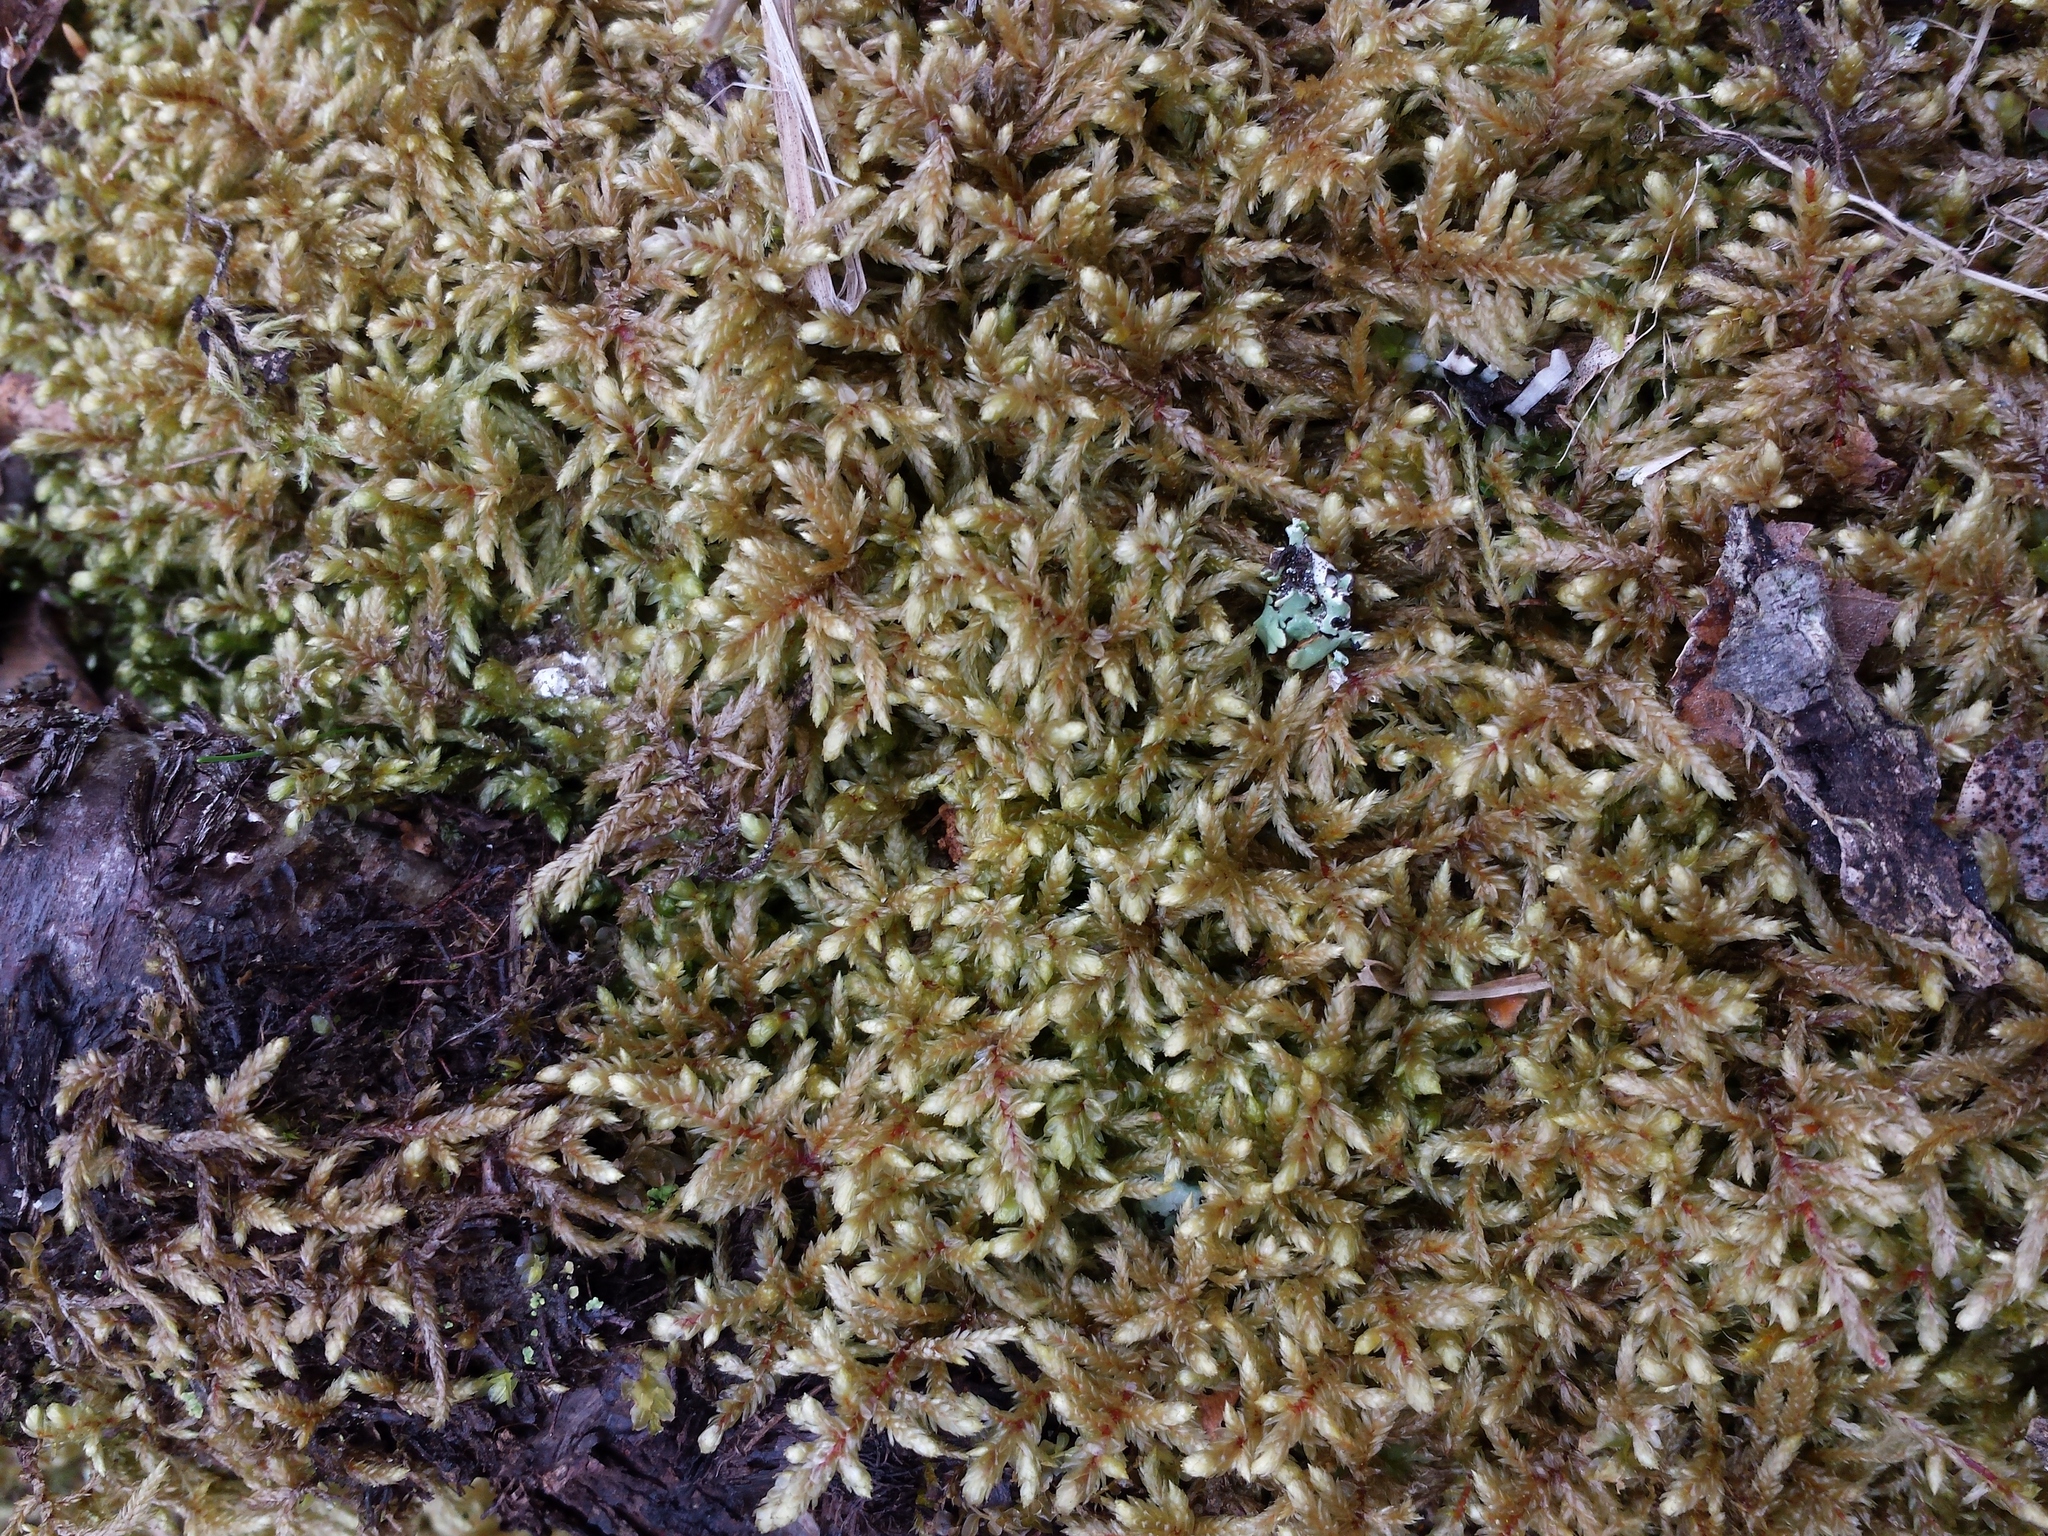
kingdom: Plantae
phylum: Bryophyta
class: Bryopsida
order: Hypnales
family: Hylocomiaceae
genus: Pleurozium
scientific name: Pleurozium schreberi
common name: Red-stemmed feather moss
